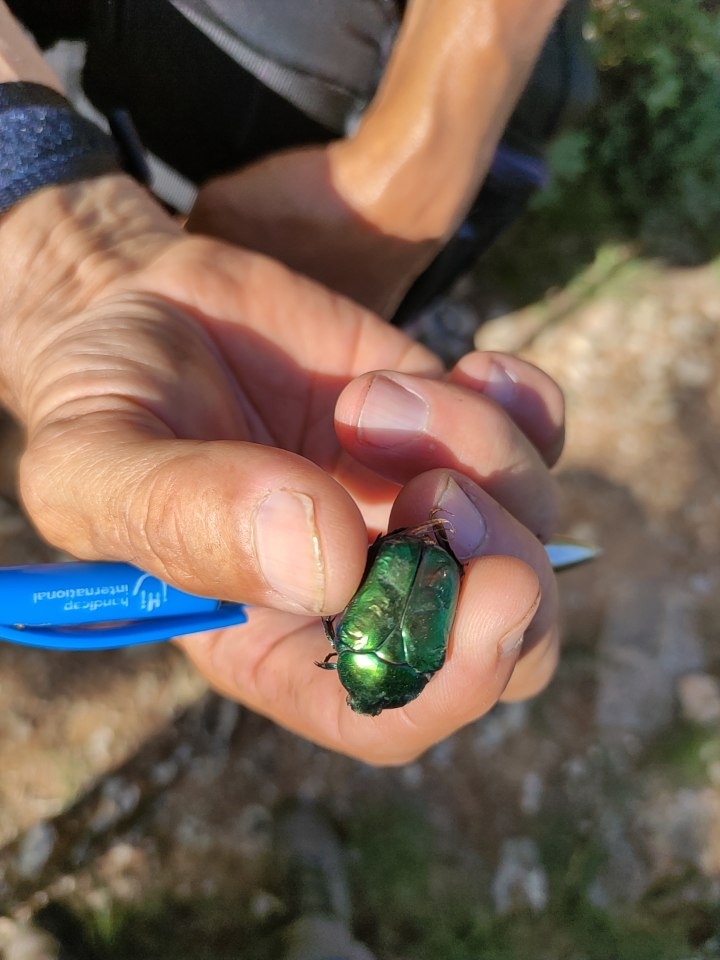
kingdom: Animalia
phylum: Arthropoda
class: Insecta
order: Coleoptera
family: Scarabaeidae
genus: Protaetia
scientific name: Protaetia speciosissima
